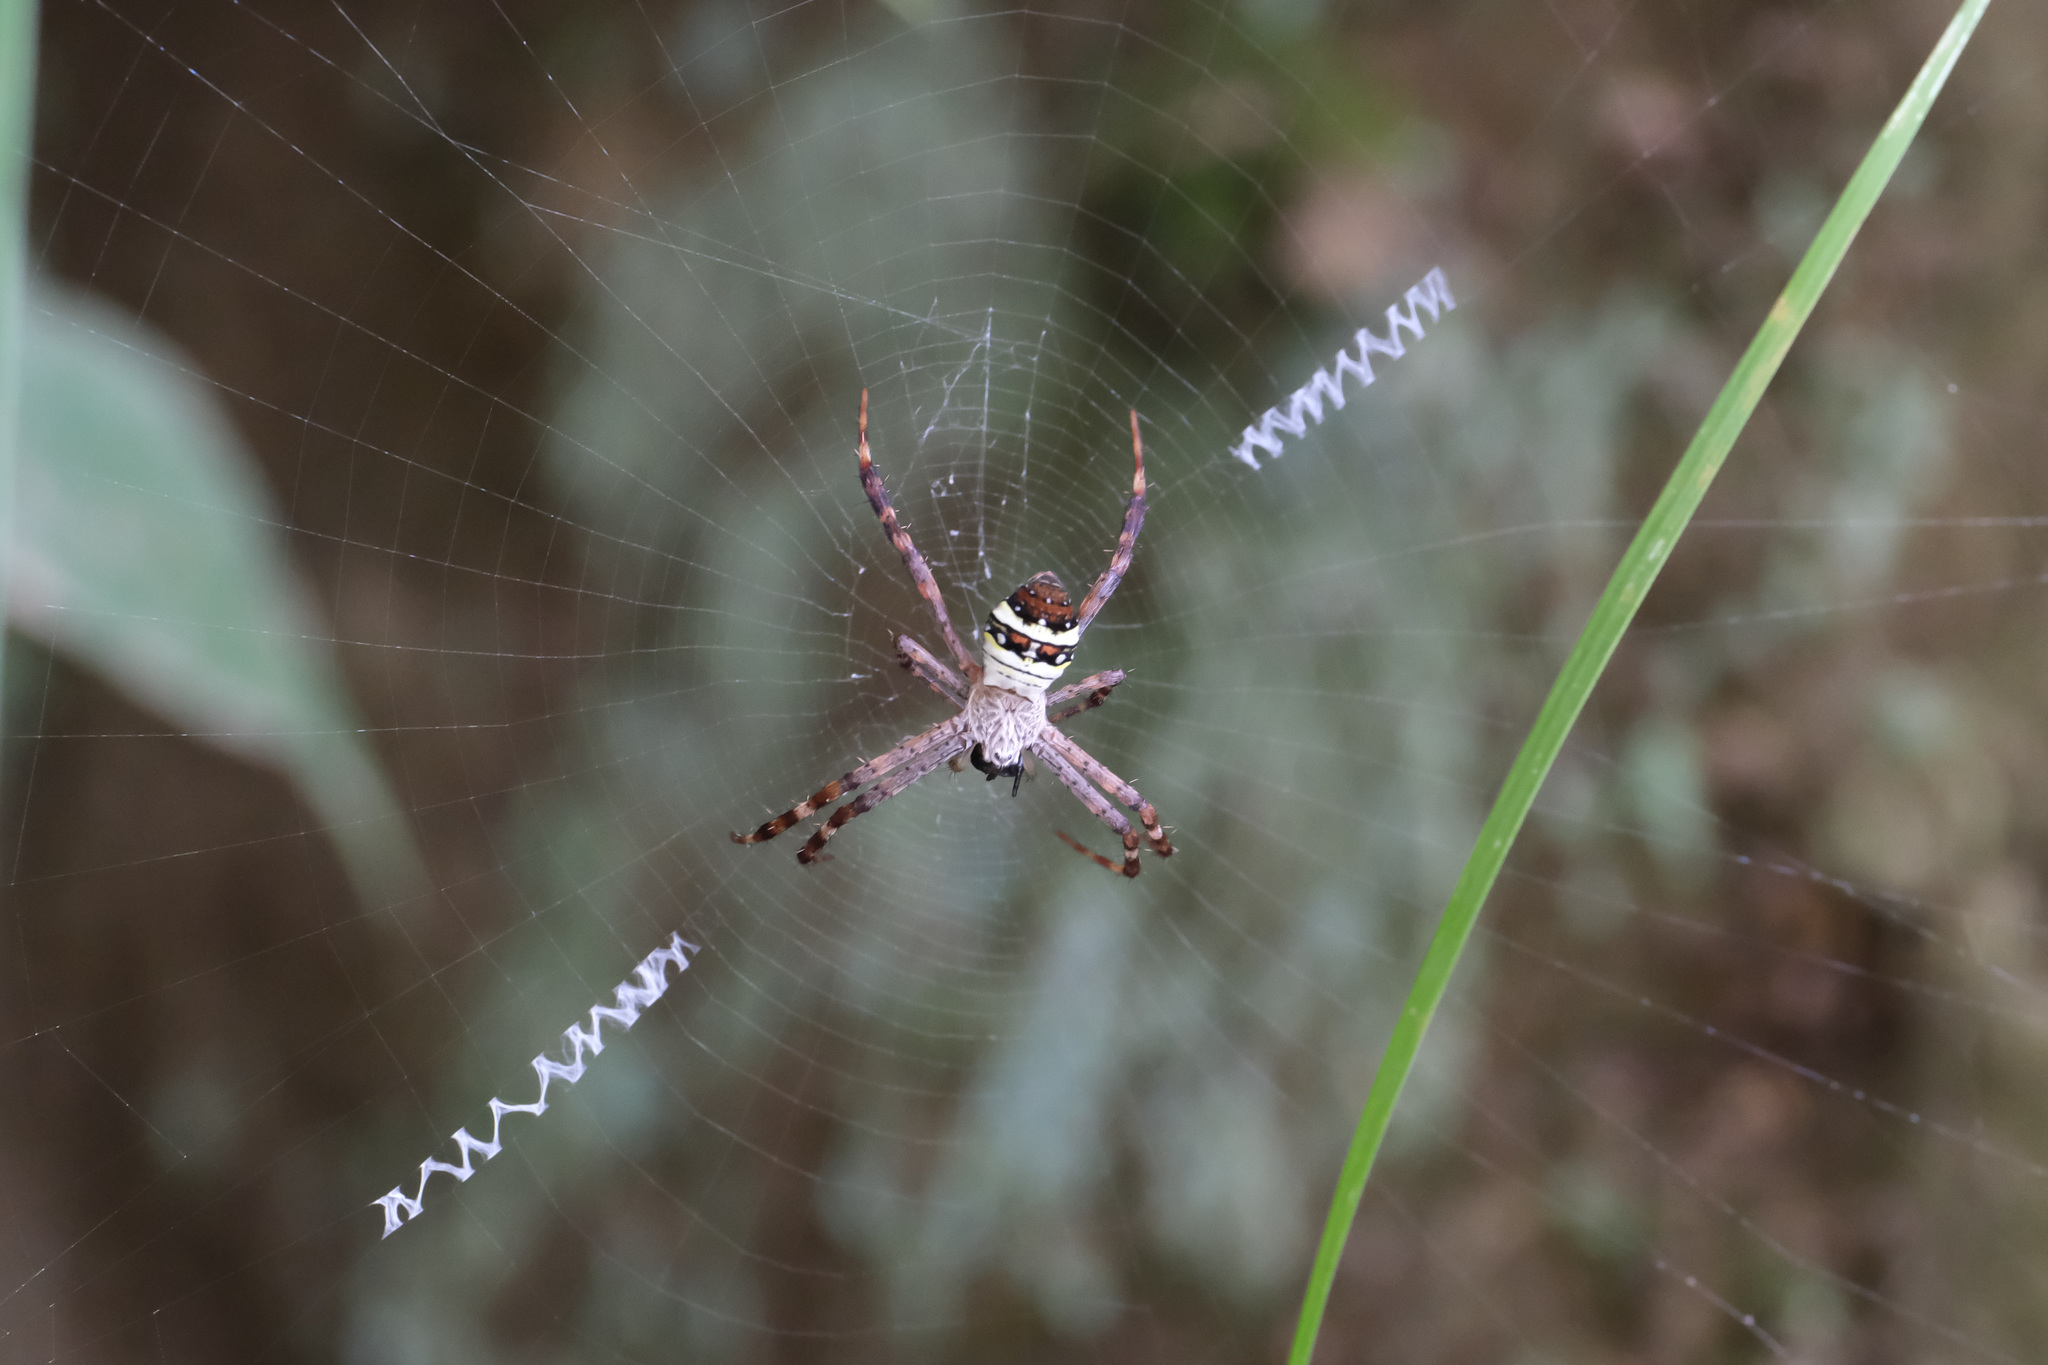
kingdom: Animalia
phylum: Arthropoda
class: Arachnida
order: Araneae
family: Araneidae
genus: Argiope
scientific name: Argiope minuta
